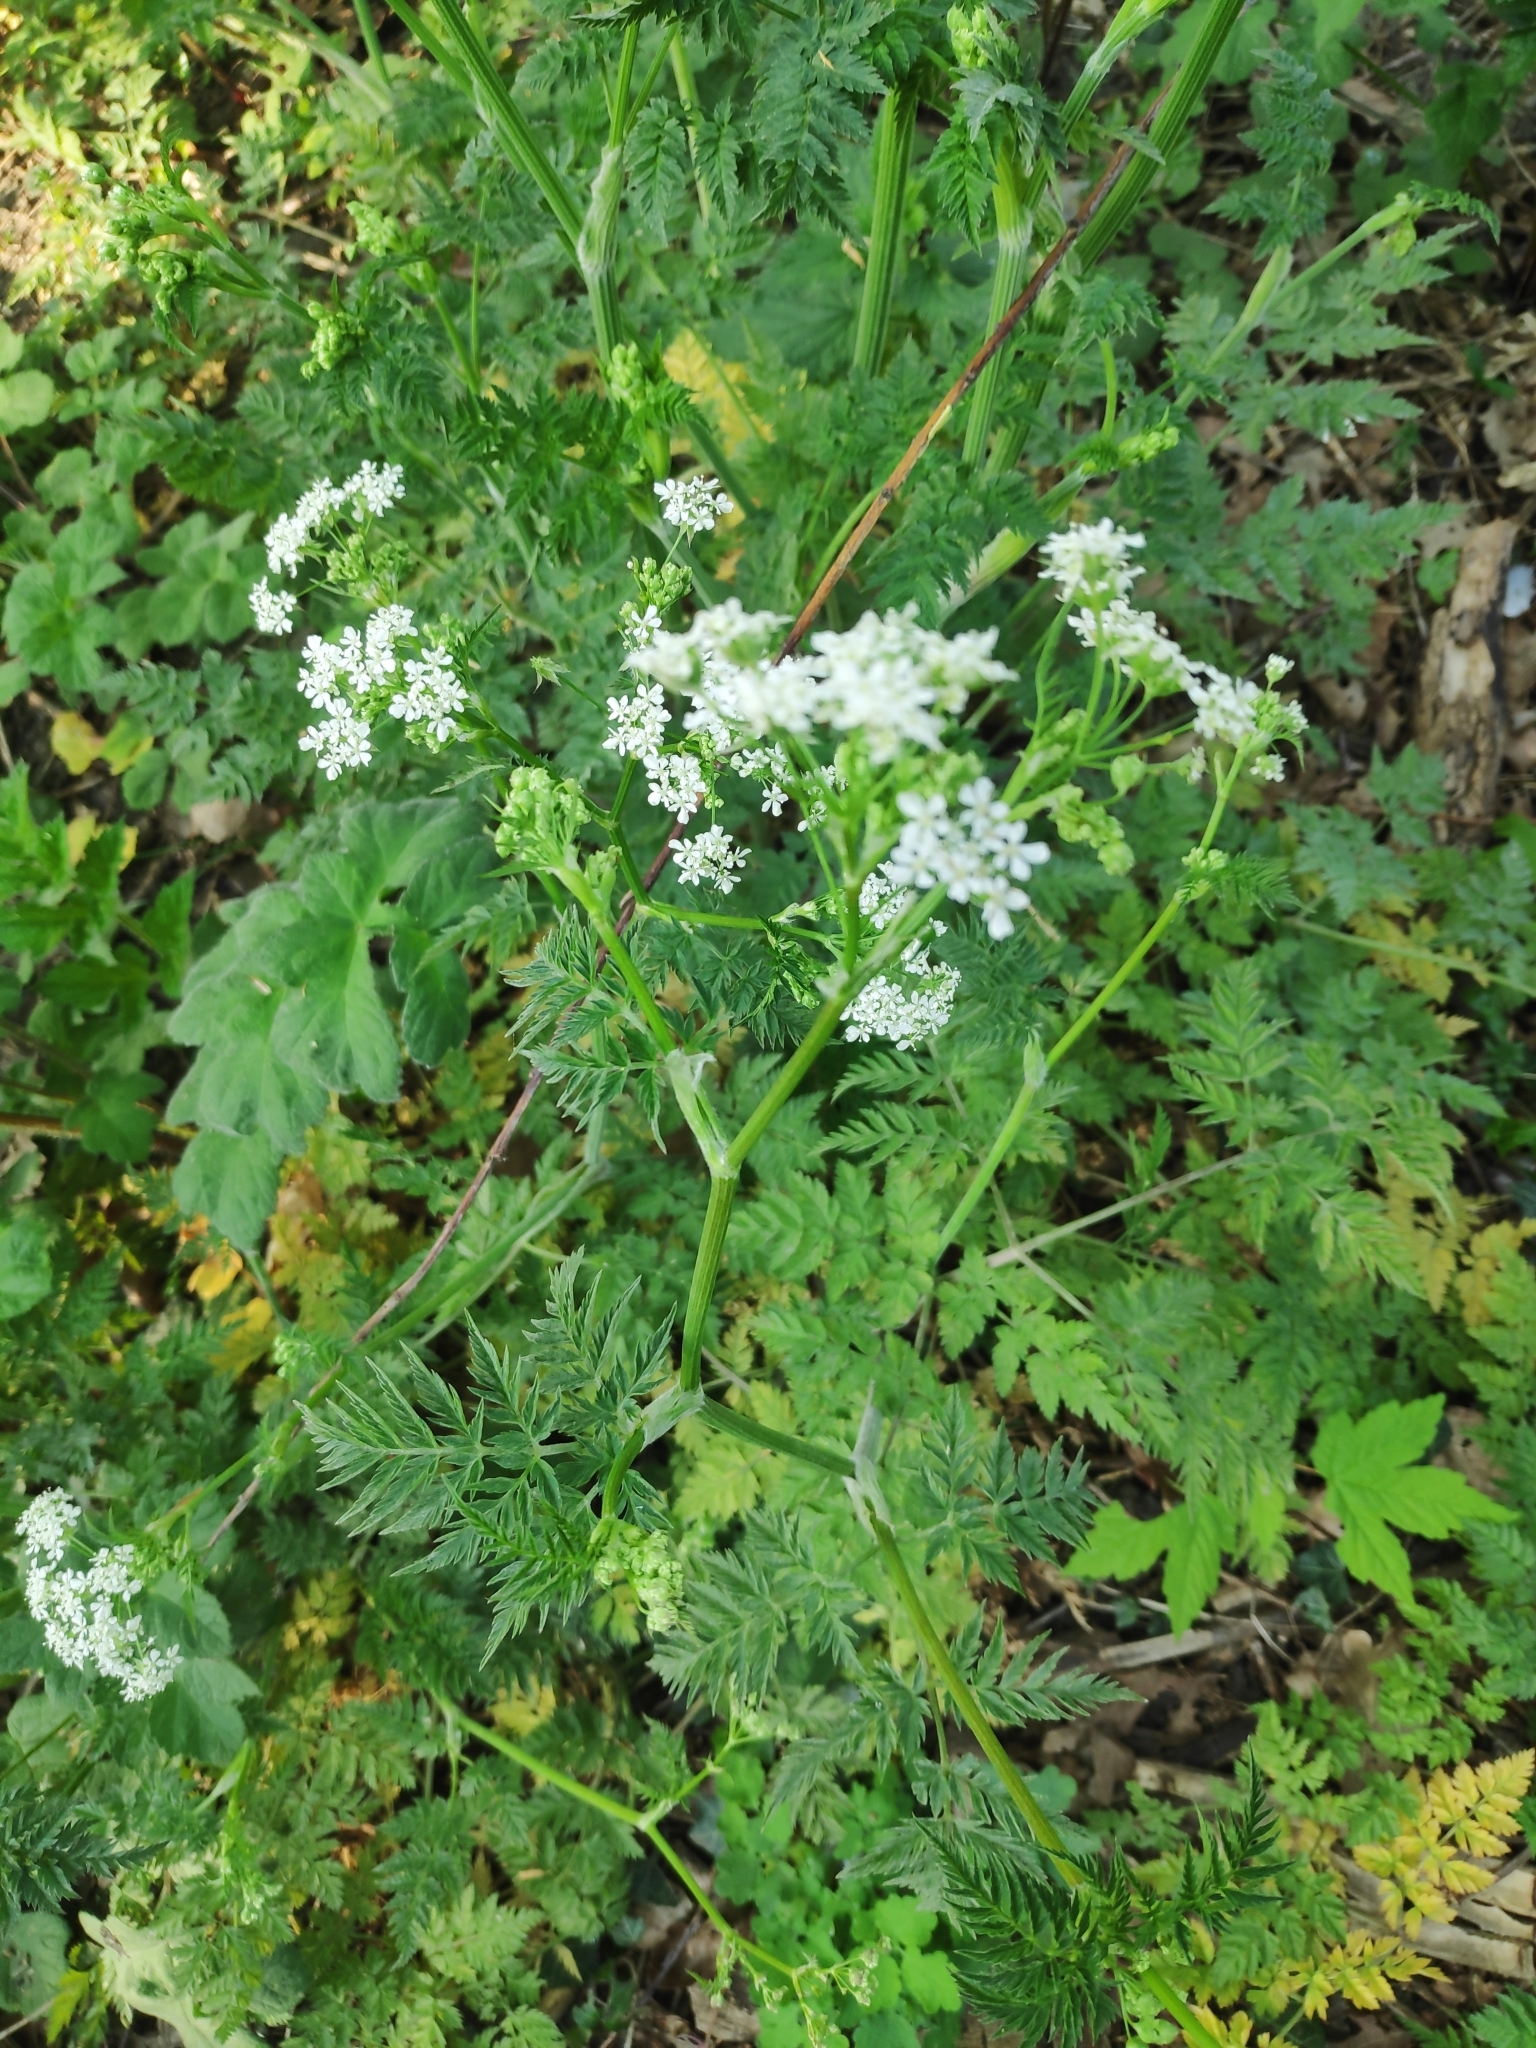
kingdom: Plantae
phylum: Tracheophyta
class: Magnoliopsida
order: Apiales
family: Apiaceae
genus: Anthriscus
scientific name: Anthriscus sylvestris
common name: Cow parsley
